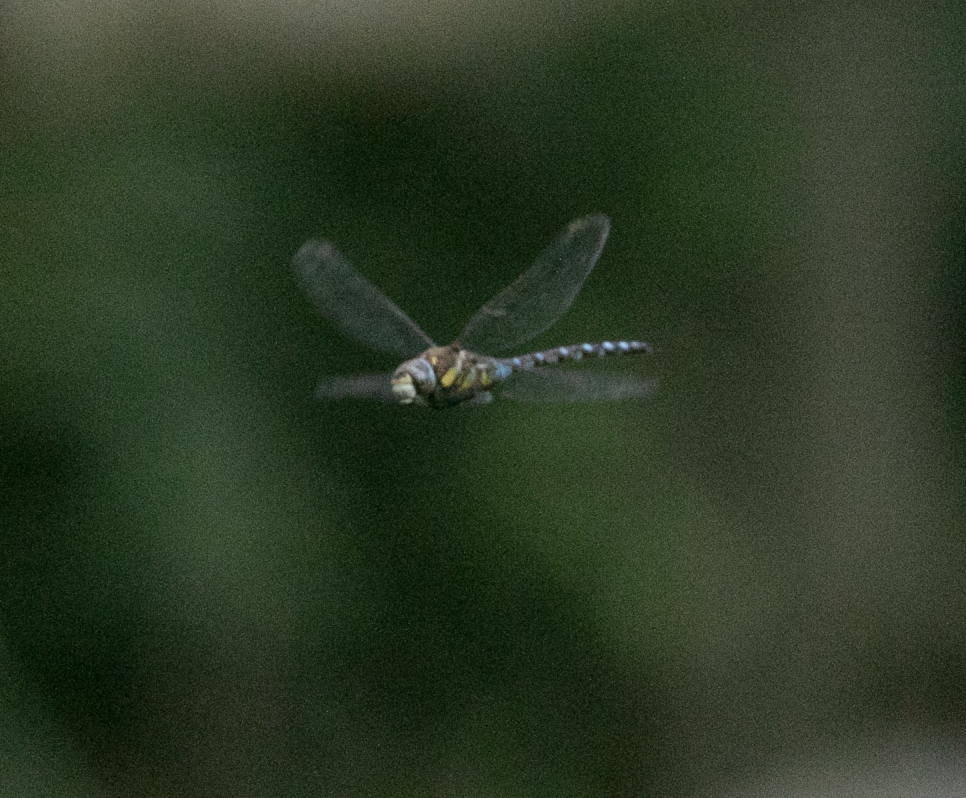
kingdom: Animalia
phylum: Arthropoda
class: Insecta
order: Odonata
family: Aeshnidae
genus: Aeshna
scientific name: Aeshna mixta
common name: Migrant hawker
